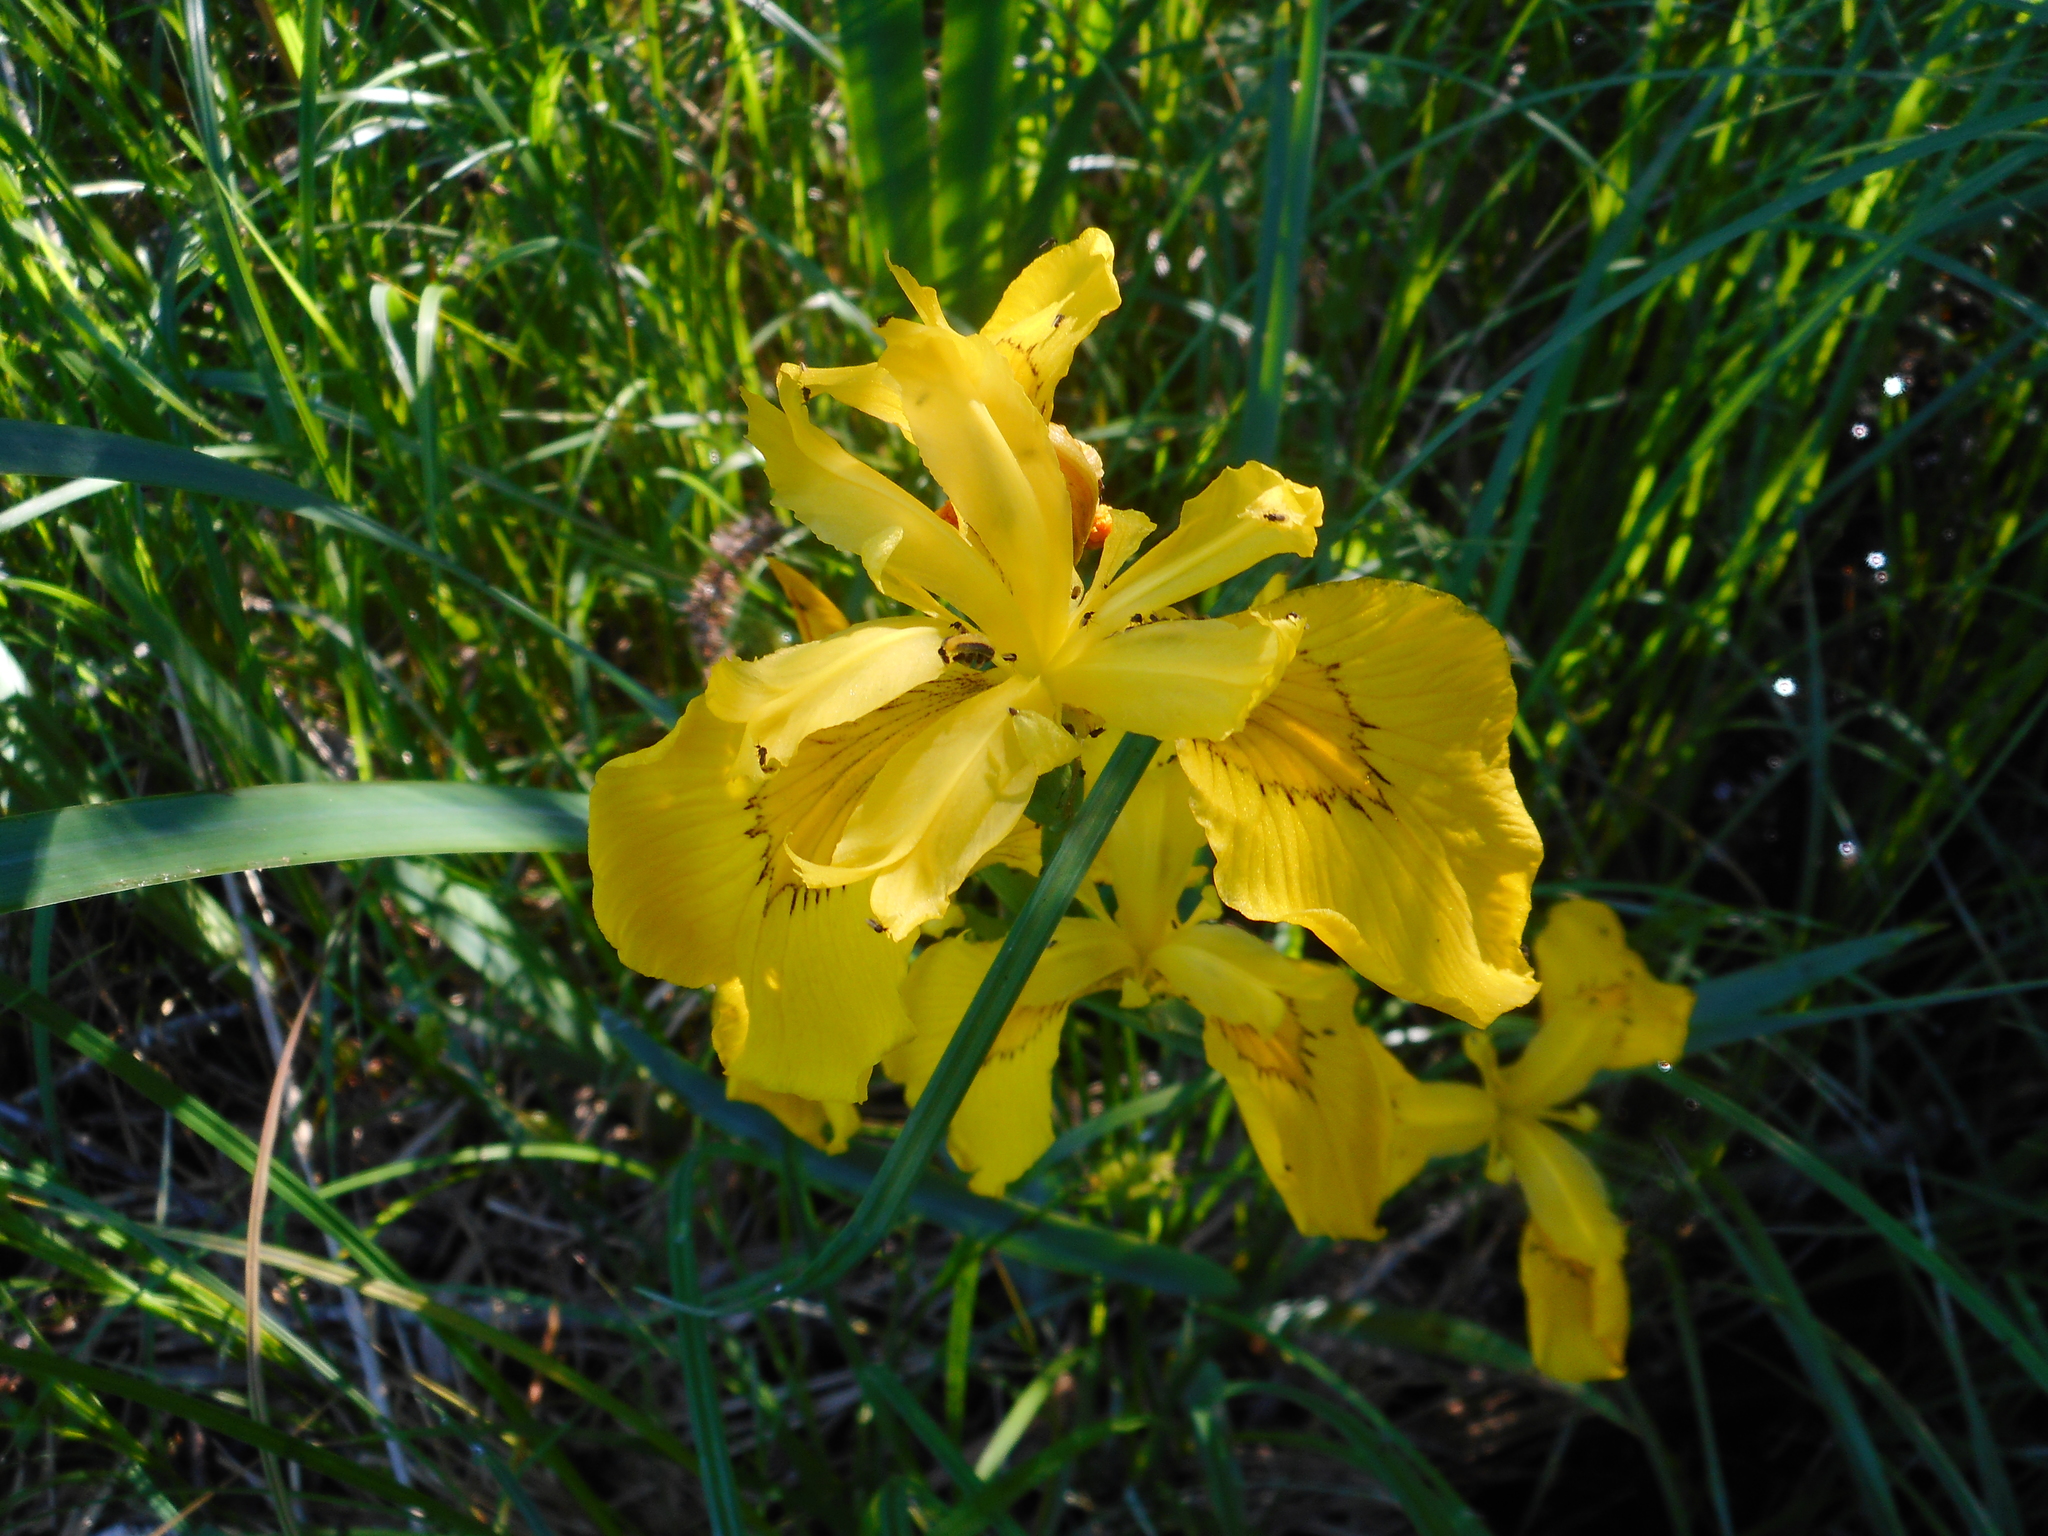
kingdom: Plantae
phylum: Tracheophyta
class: Liliopsida
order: Asparagales
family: Iridaceae
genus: Iris
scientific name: Iris pseudacorus
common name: Yellow flag
